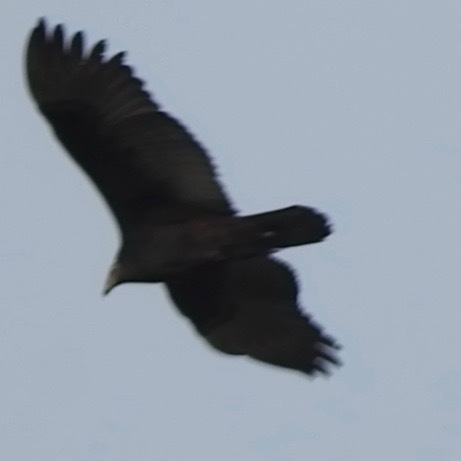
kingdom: Animalia
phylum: Chordata
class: Aves
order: Accipitriformes
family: Cathartidae
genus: Cathartes
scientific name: Cathartes aura
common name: Turkey vulture
